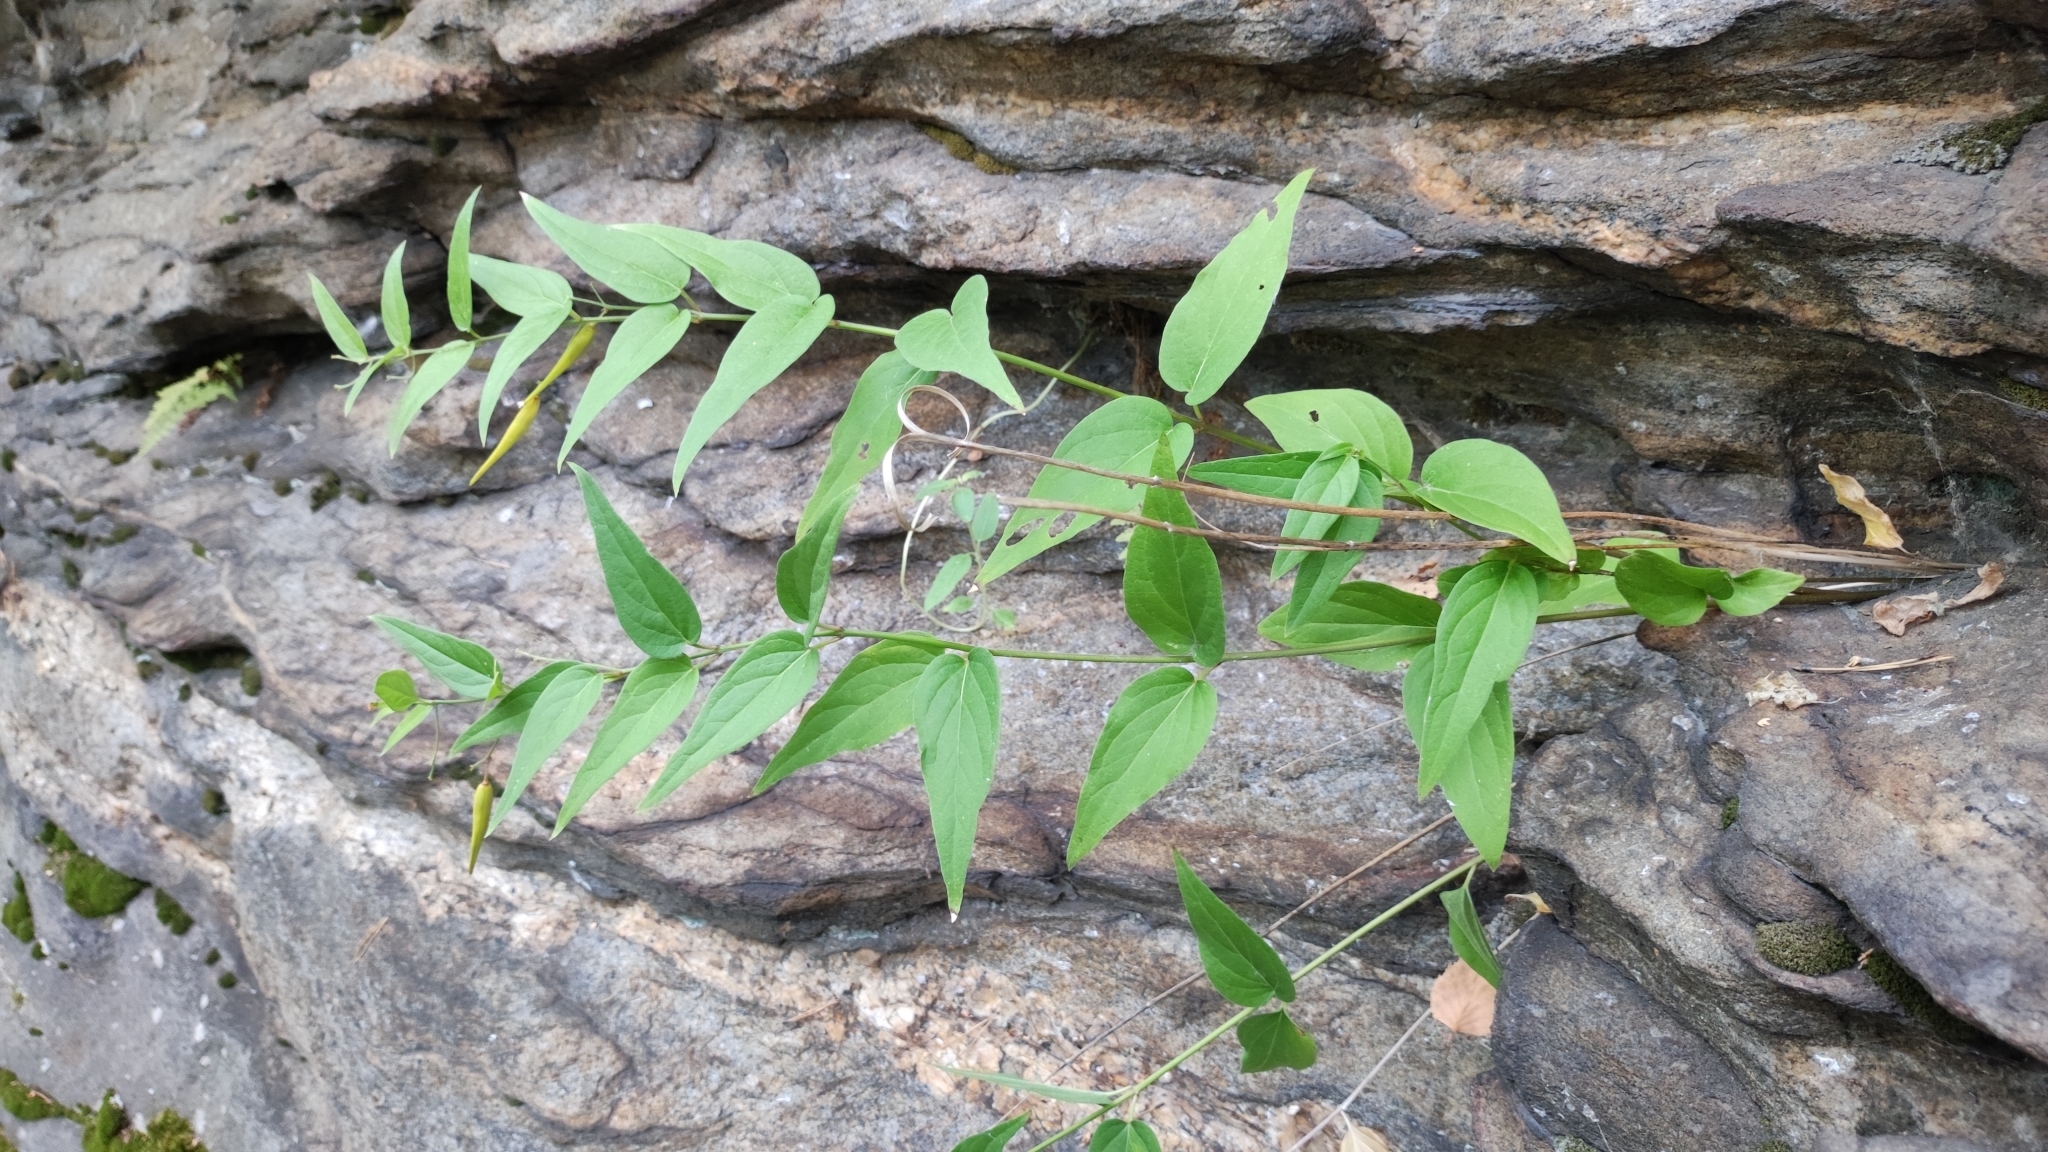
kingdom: Plantae
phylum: Tracheophyta
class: Magnoliopsida
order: Gentianales
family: Apocynaceae
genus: Vincetoxicum
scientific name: Vincetoxicum hirundinaria
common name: White swallowwort
